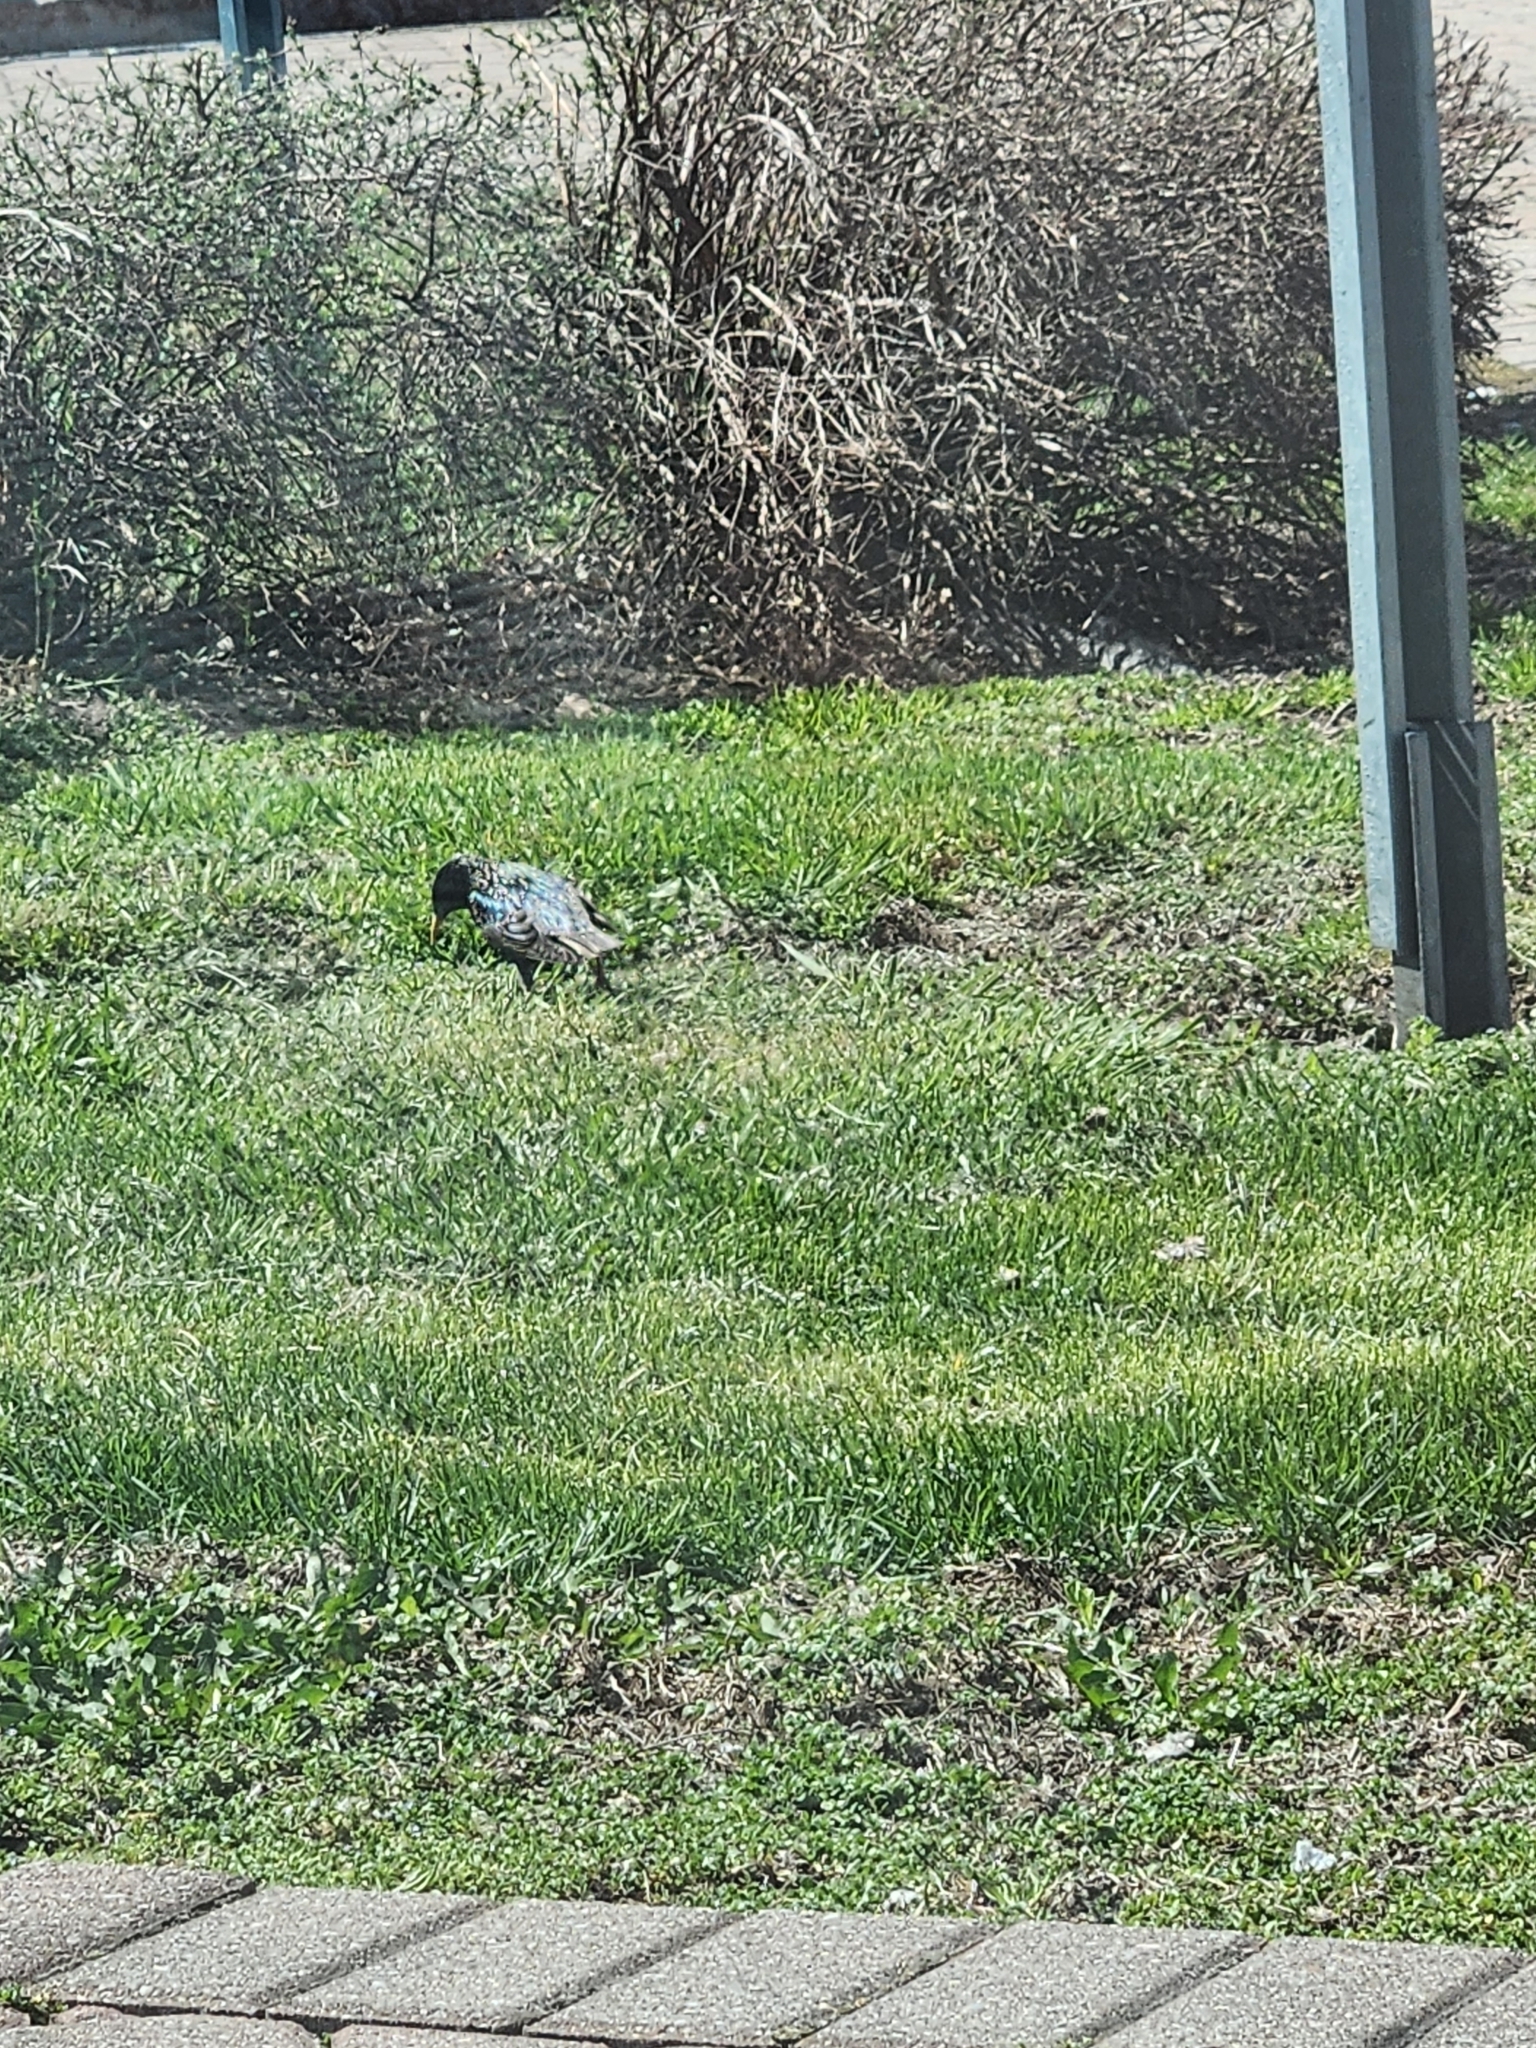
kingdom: Animalia
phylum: Chordata
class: Aves
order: Passeriformes
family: Sturnidae
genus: Sturnus
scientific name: Sturnus vulgaris
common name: Common starling
